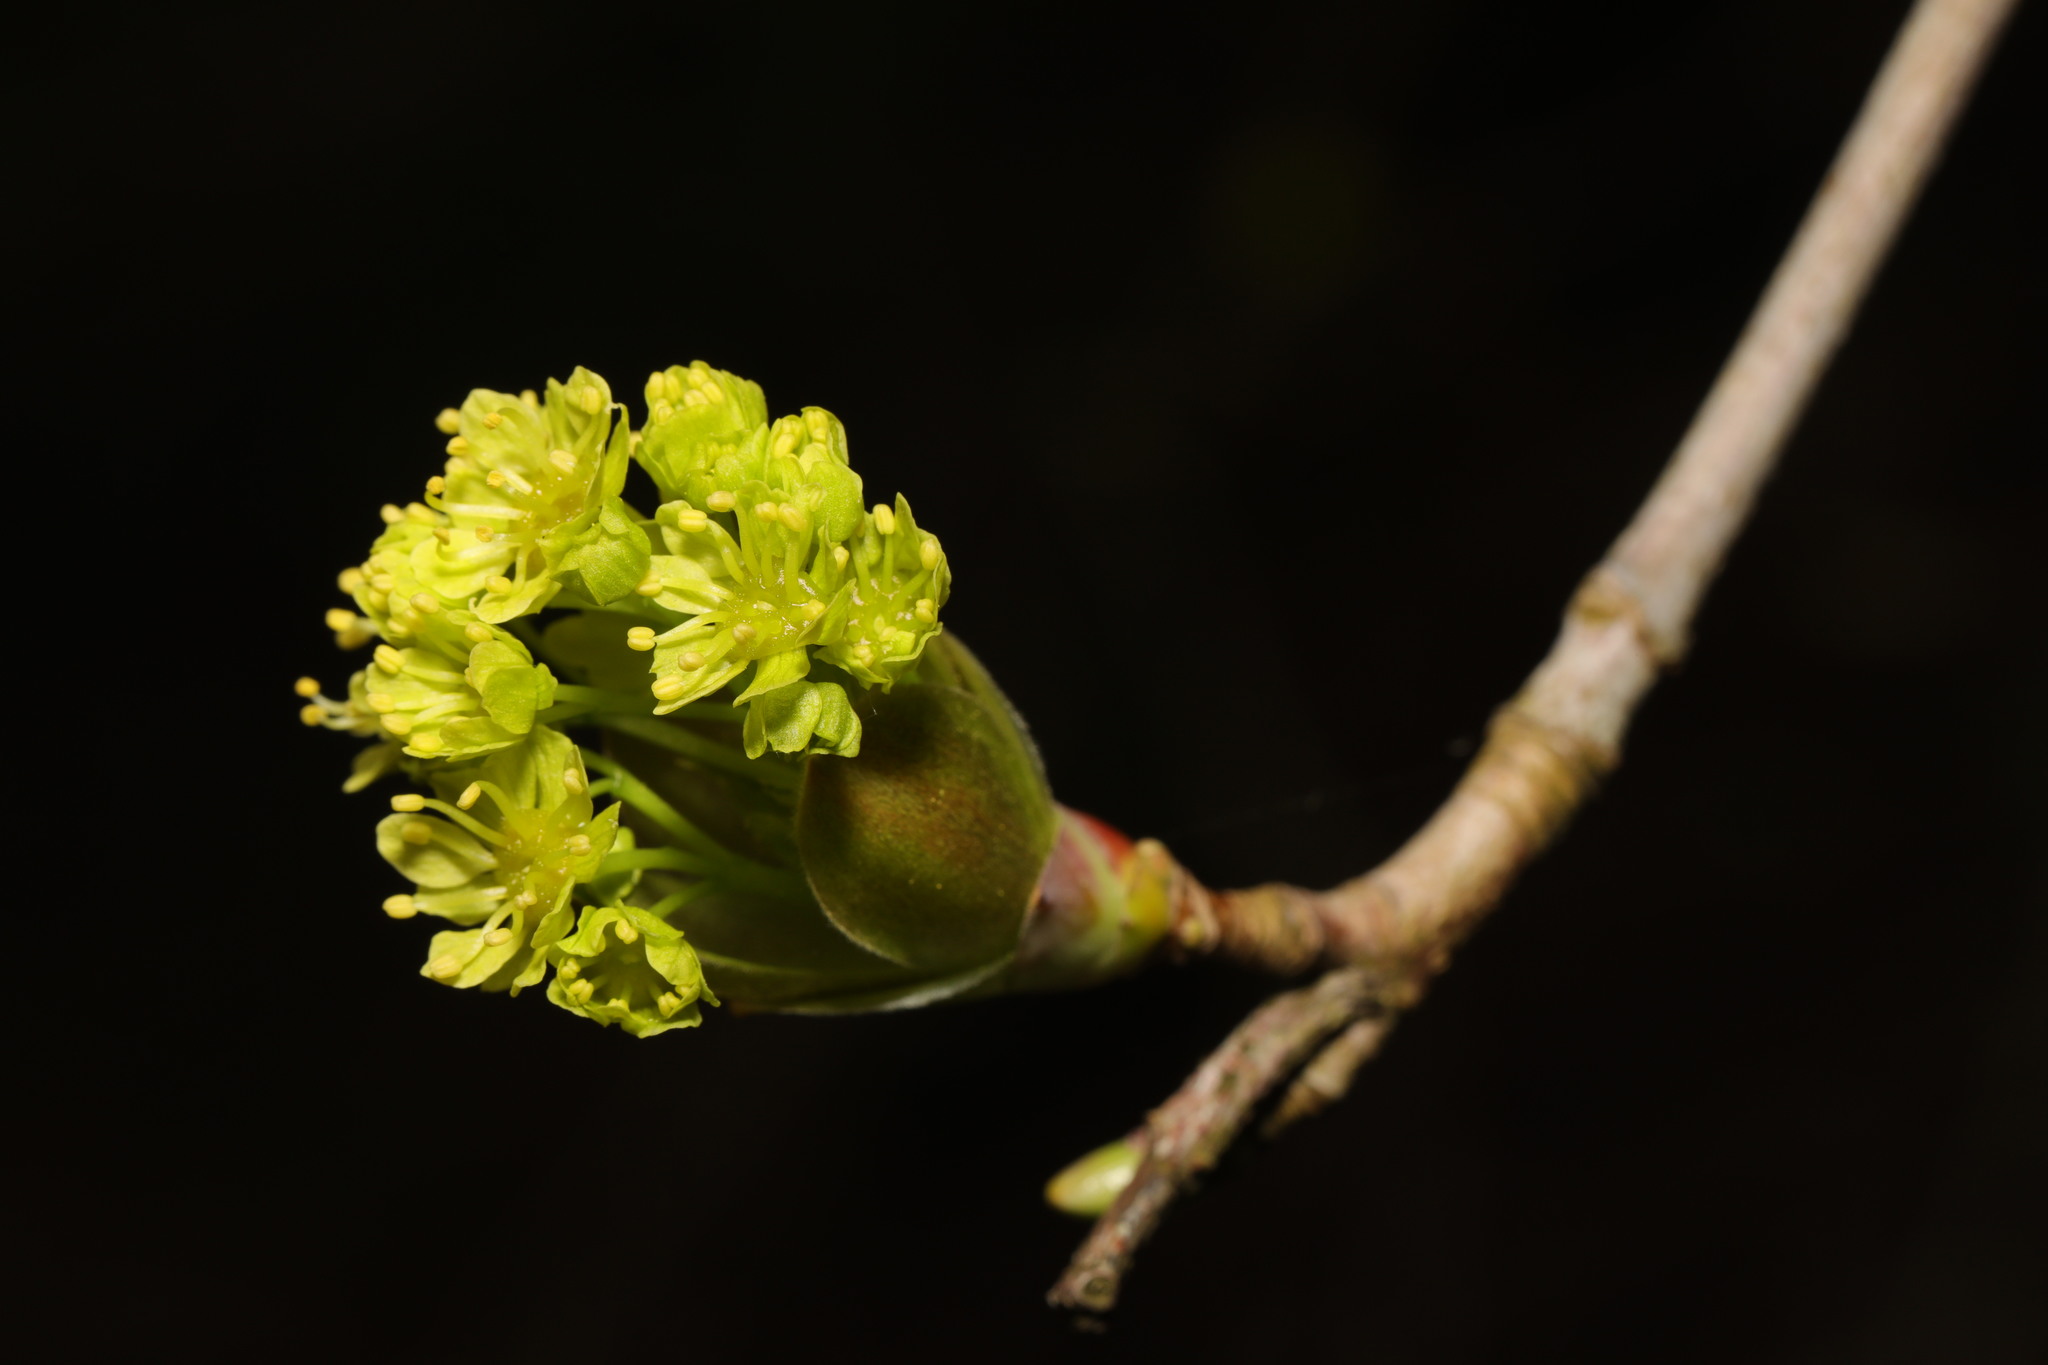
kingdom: Plantae
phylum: Tracheophyta
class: Magnoliopsida
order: Sapindales
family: Sapindaceae
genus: Acer
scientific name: Acer platanoides
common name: Norway maple
